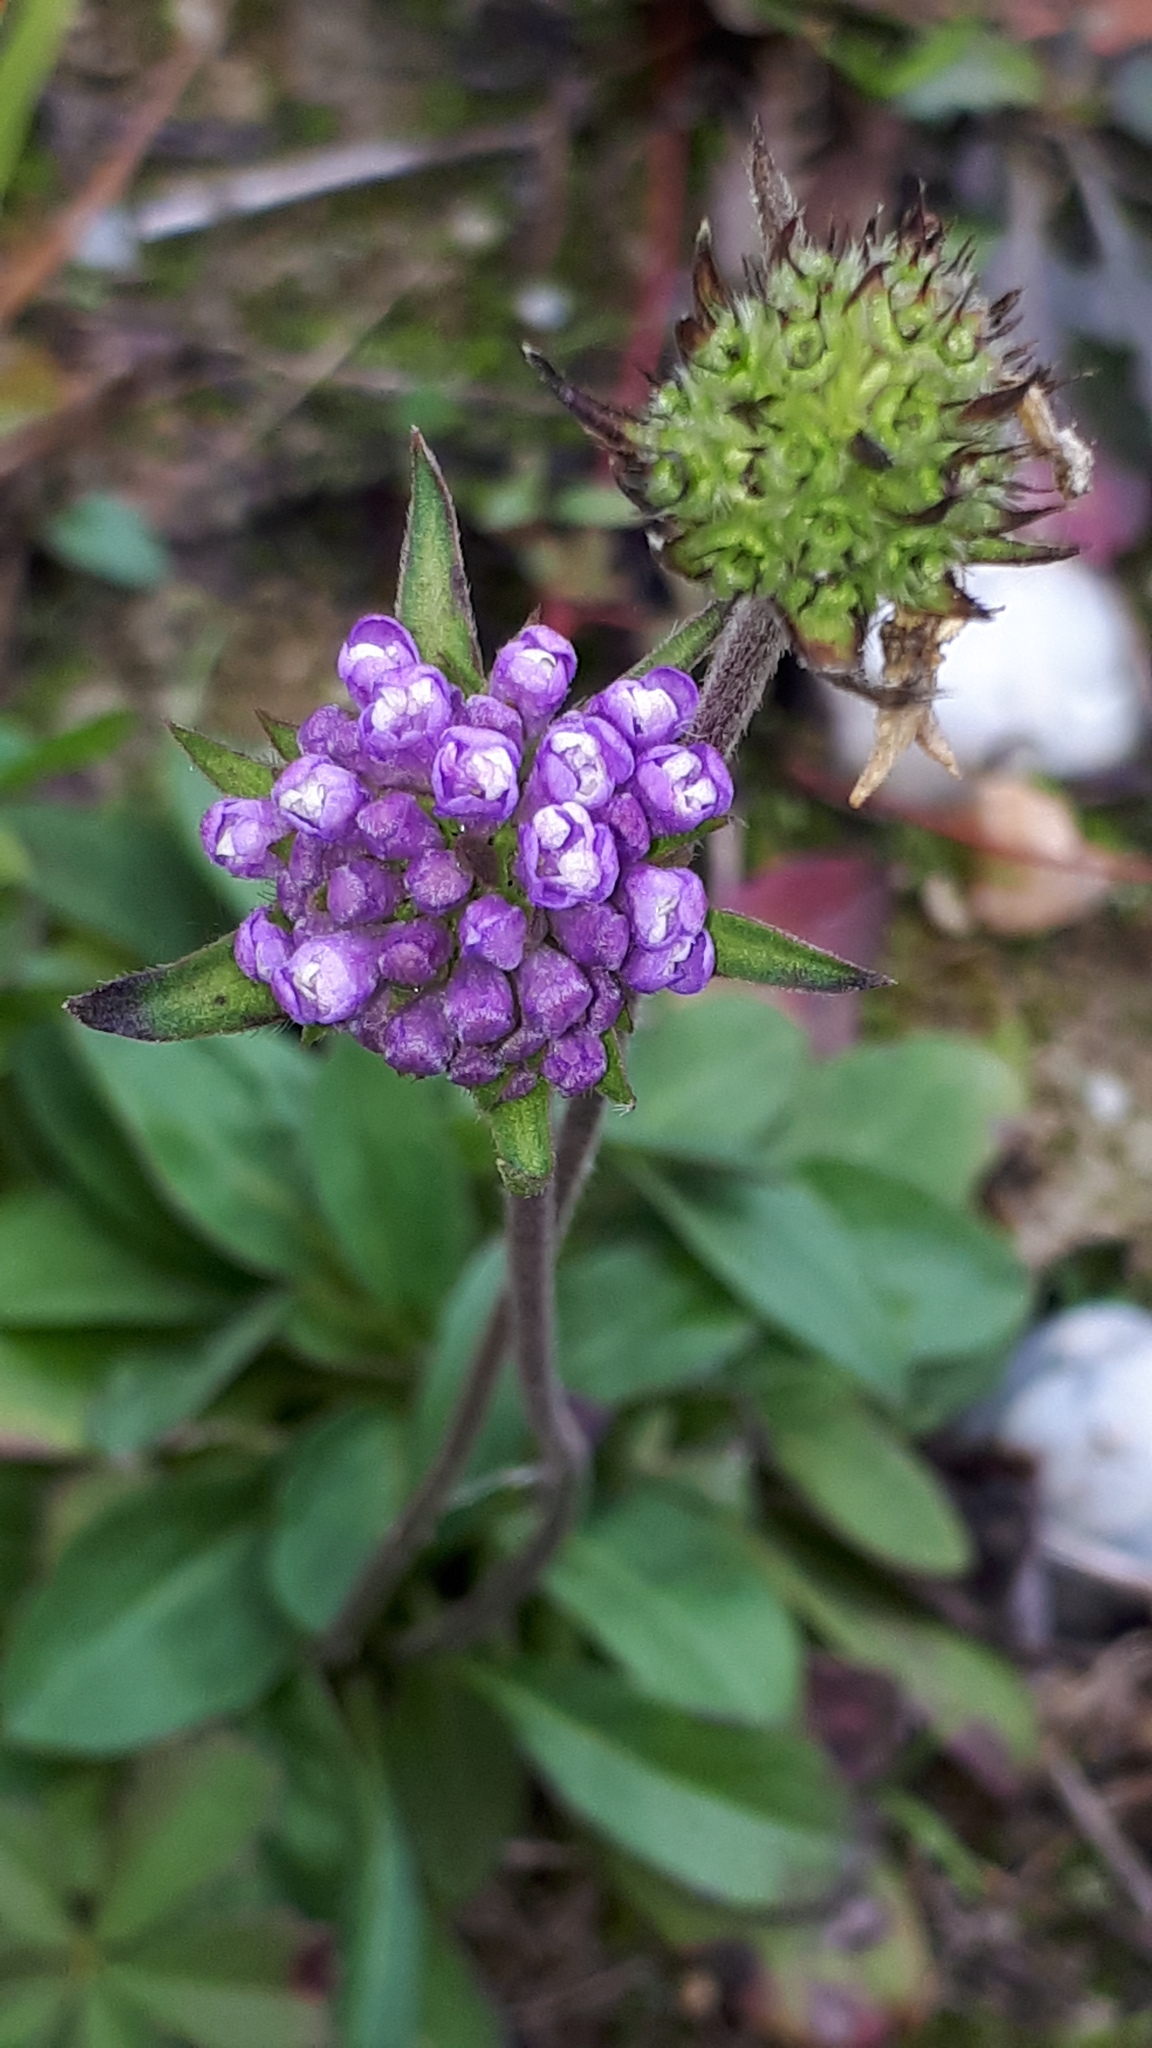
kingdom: Plantae
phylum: Tracheophyta
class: Magnoliopsida
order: Dipsacales
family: Caprifoliaceae
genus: Succisa
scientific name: Succisa pratensis
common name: Devil's-bit
